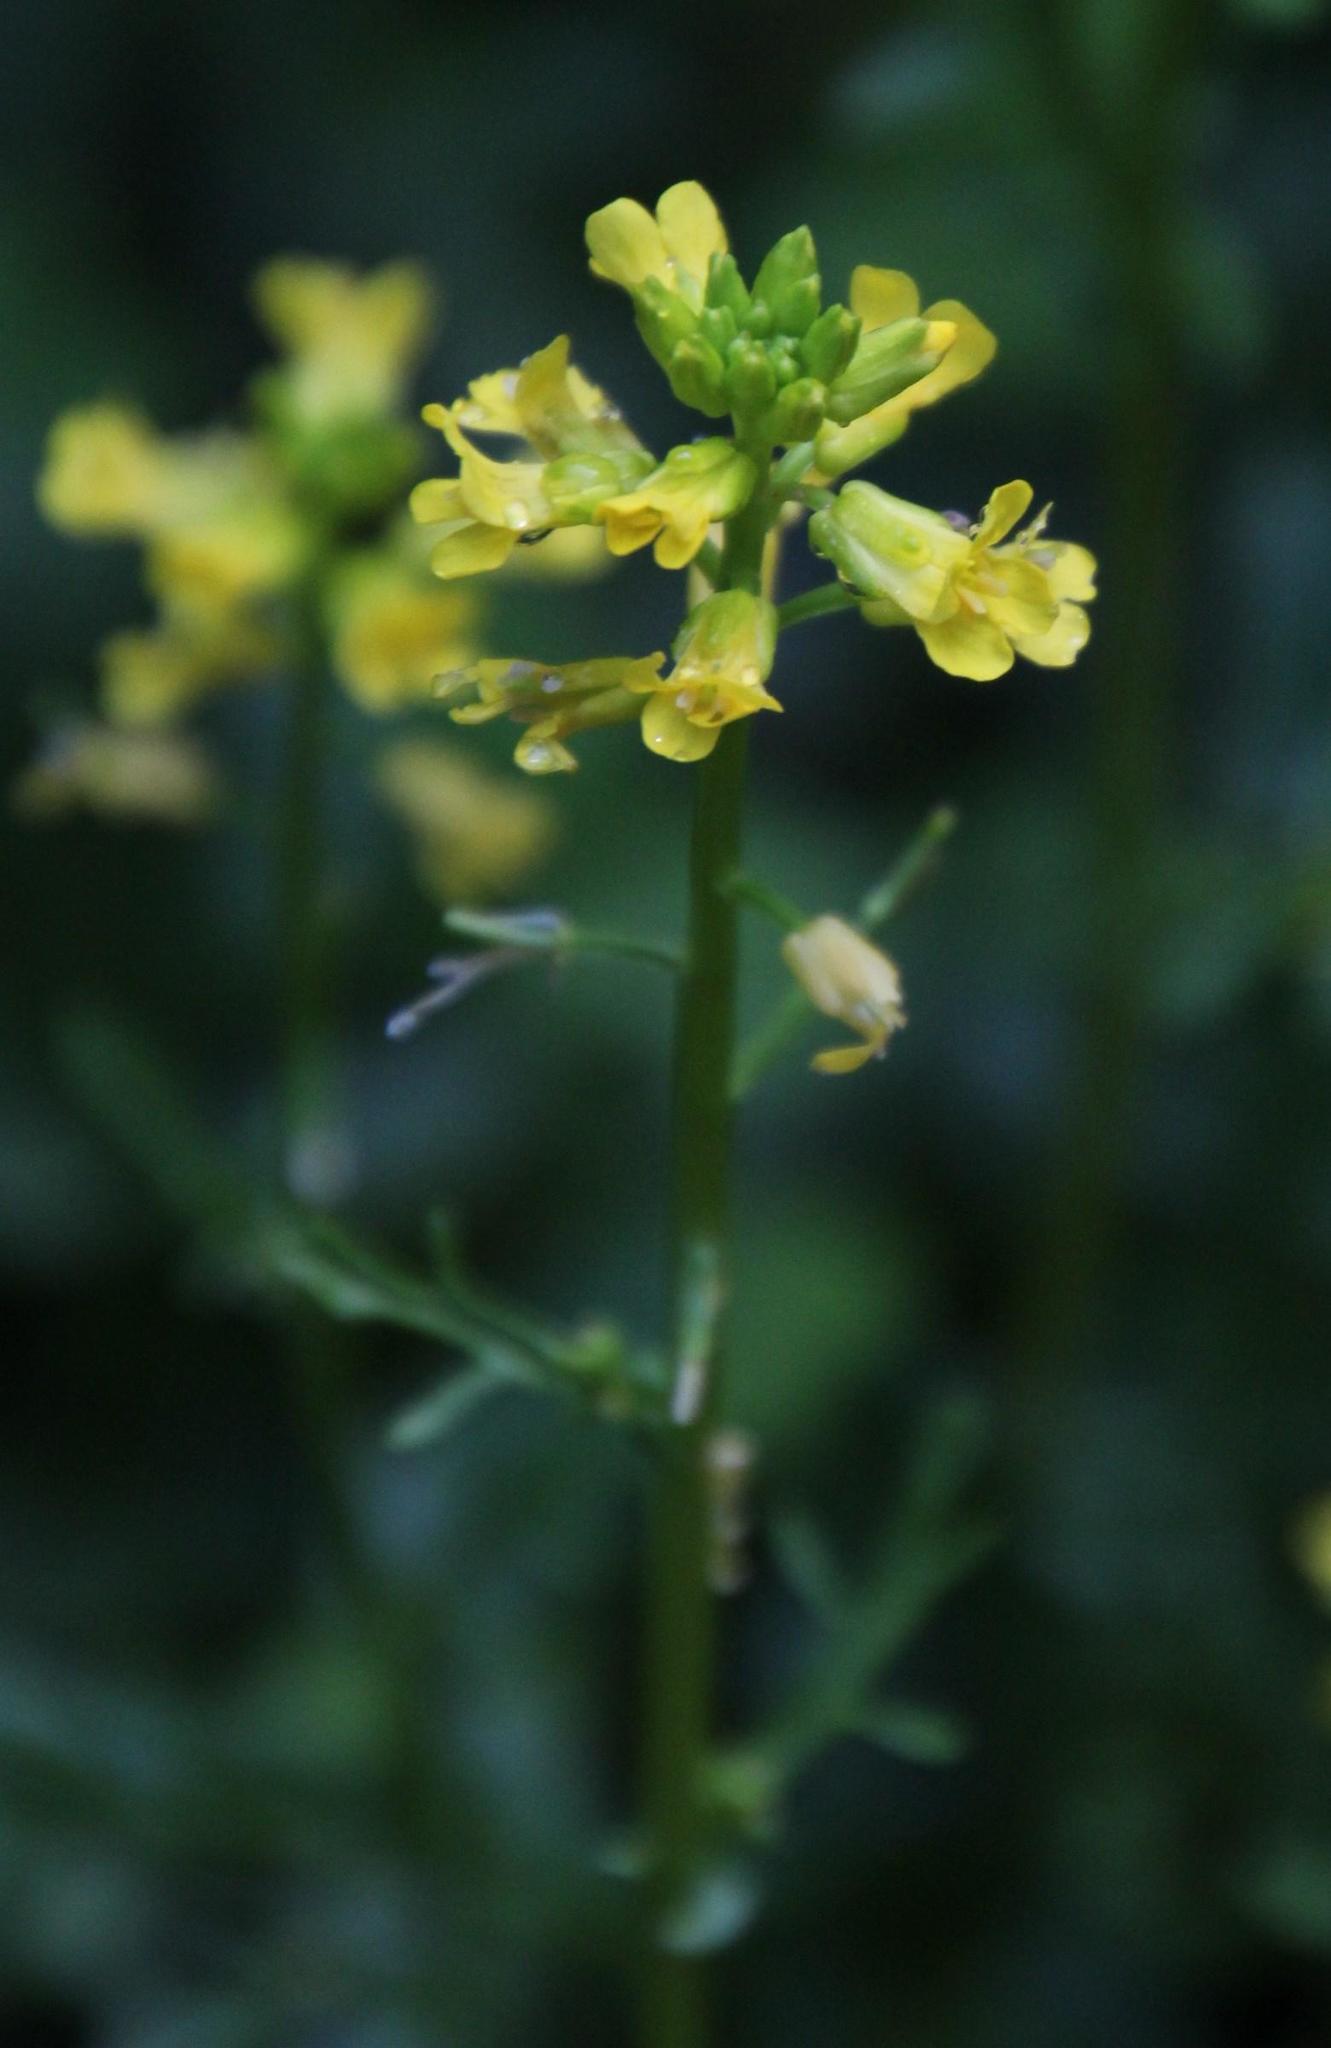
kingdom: Plantae
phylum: Tracheophyta
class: Magnoliopsida
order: Brassicales
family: Brassicaceae
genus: Barbarea
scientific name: Barbarea verna
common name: American cress
